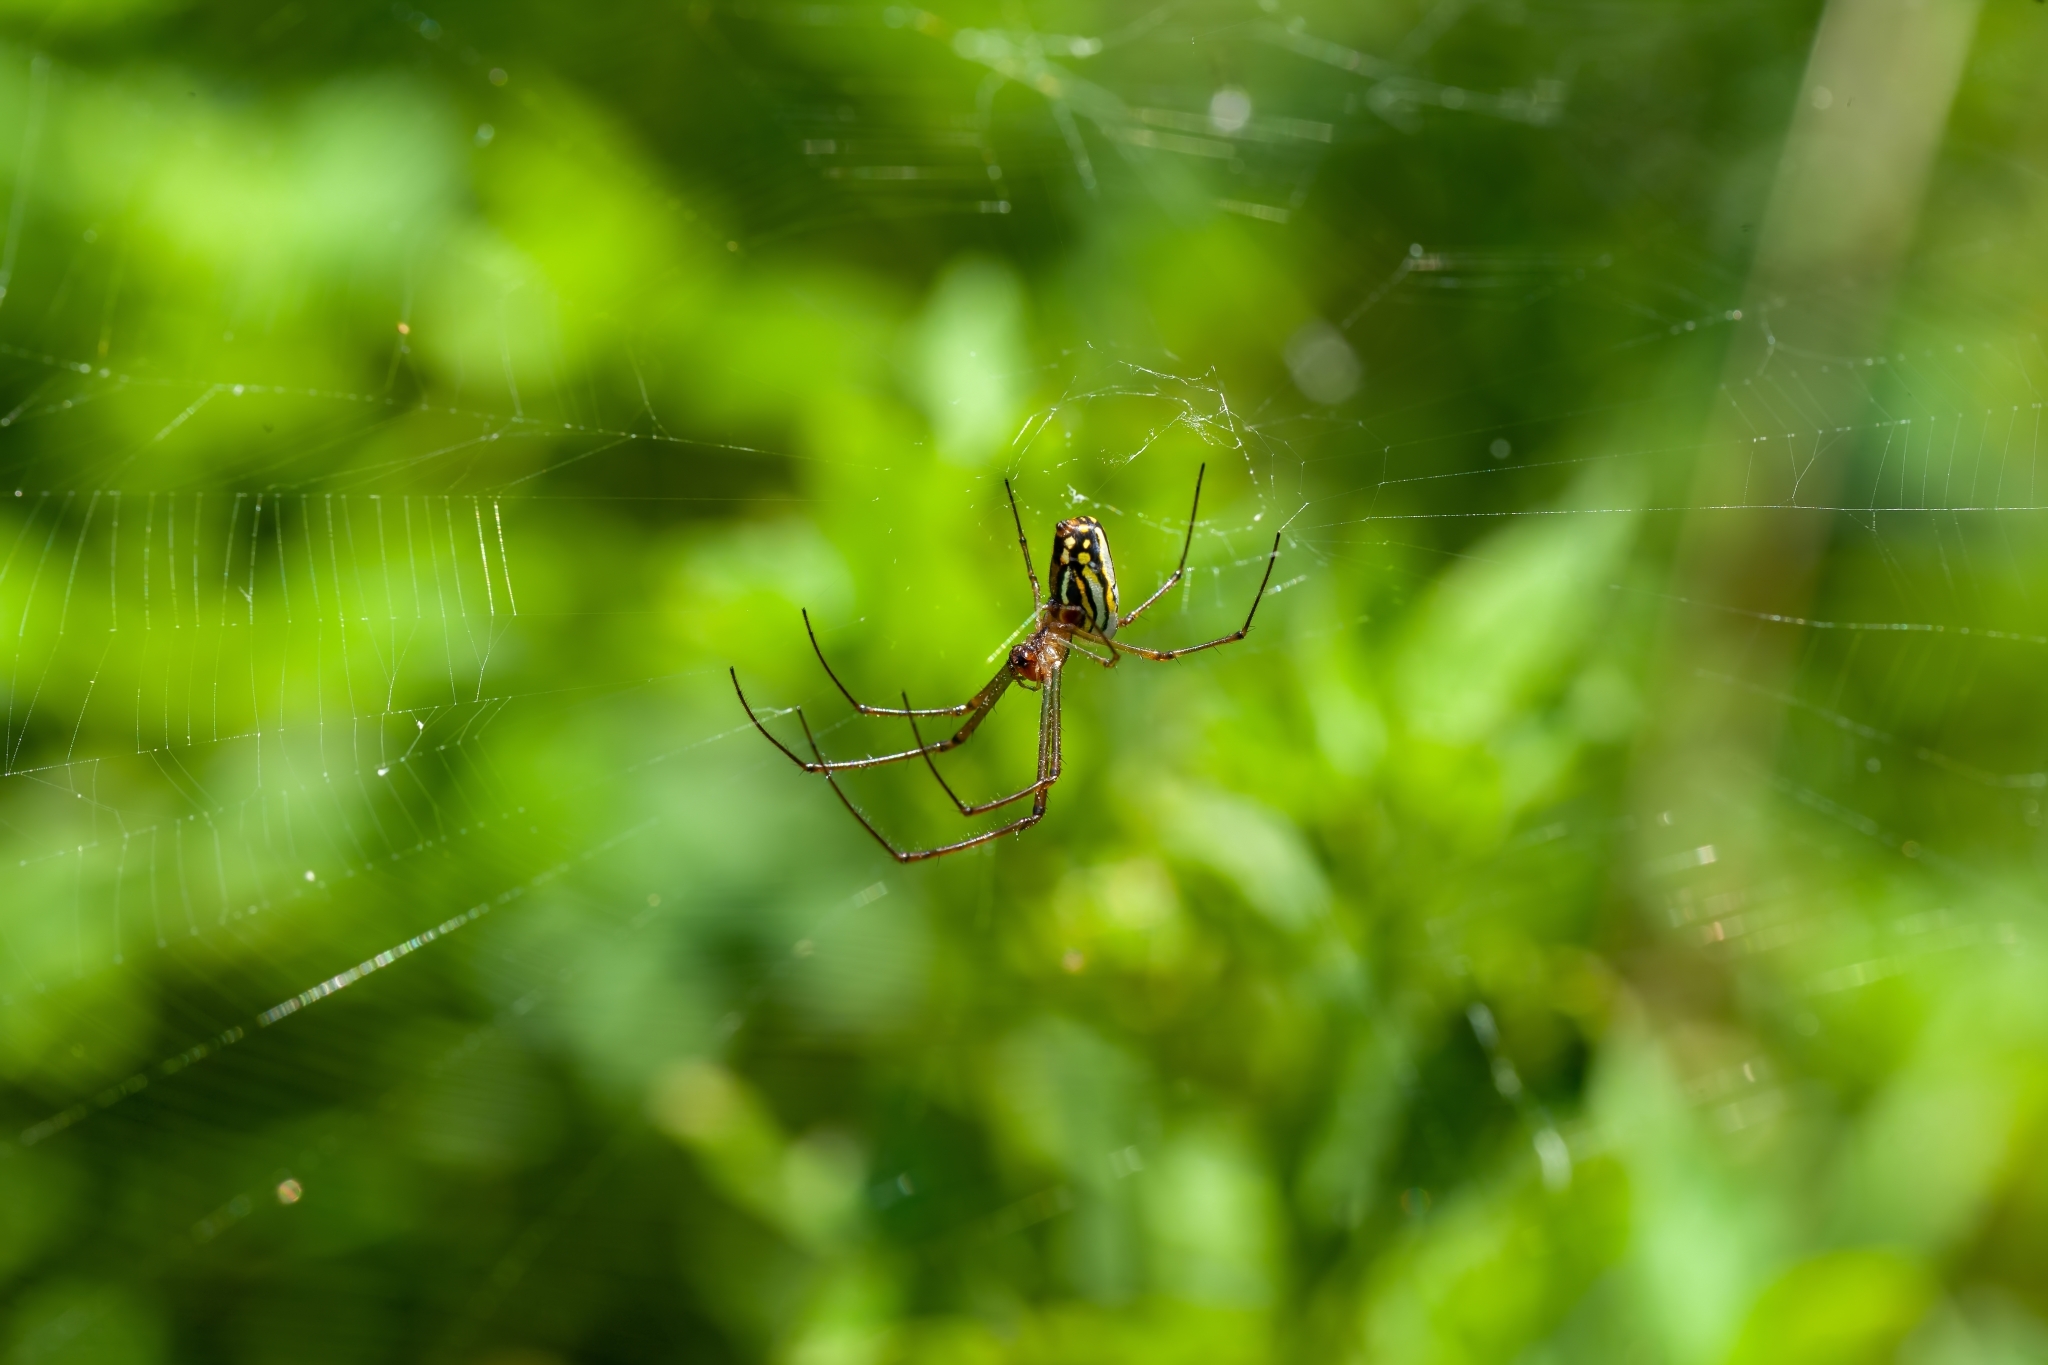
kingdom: Animalia
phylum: Arthropoda
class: Arachnida
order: Araneae
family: Tetragnathidae
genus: Leucauge
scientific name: Leucauge argyra
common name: Longjawed orb weavers
